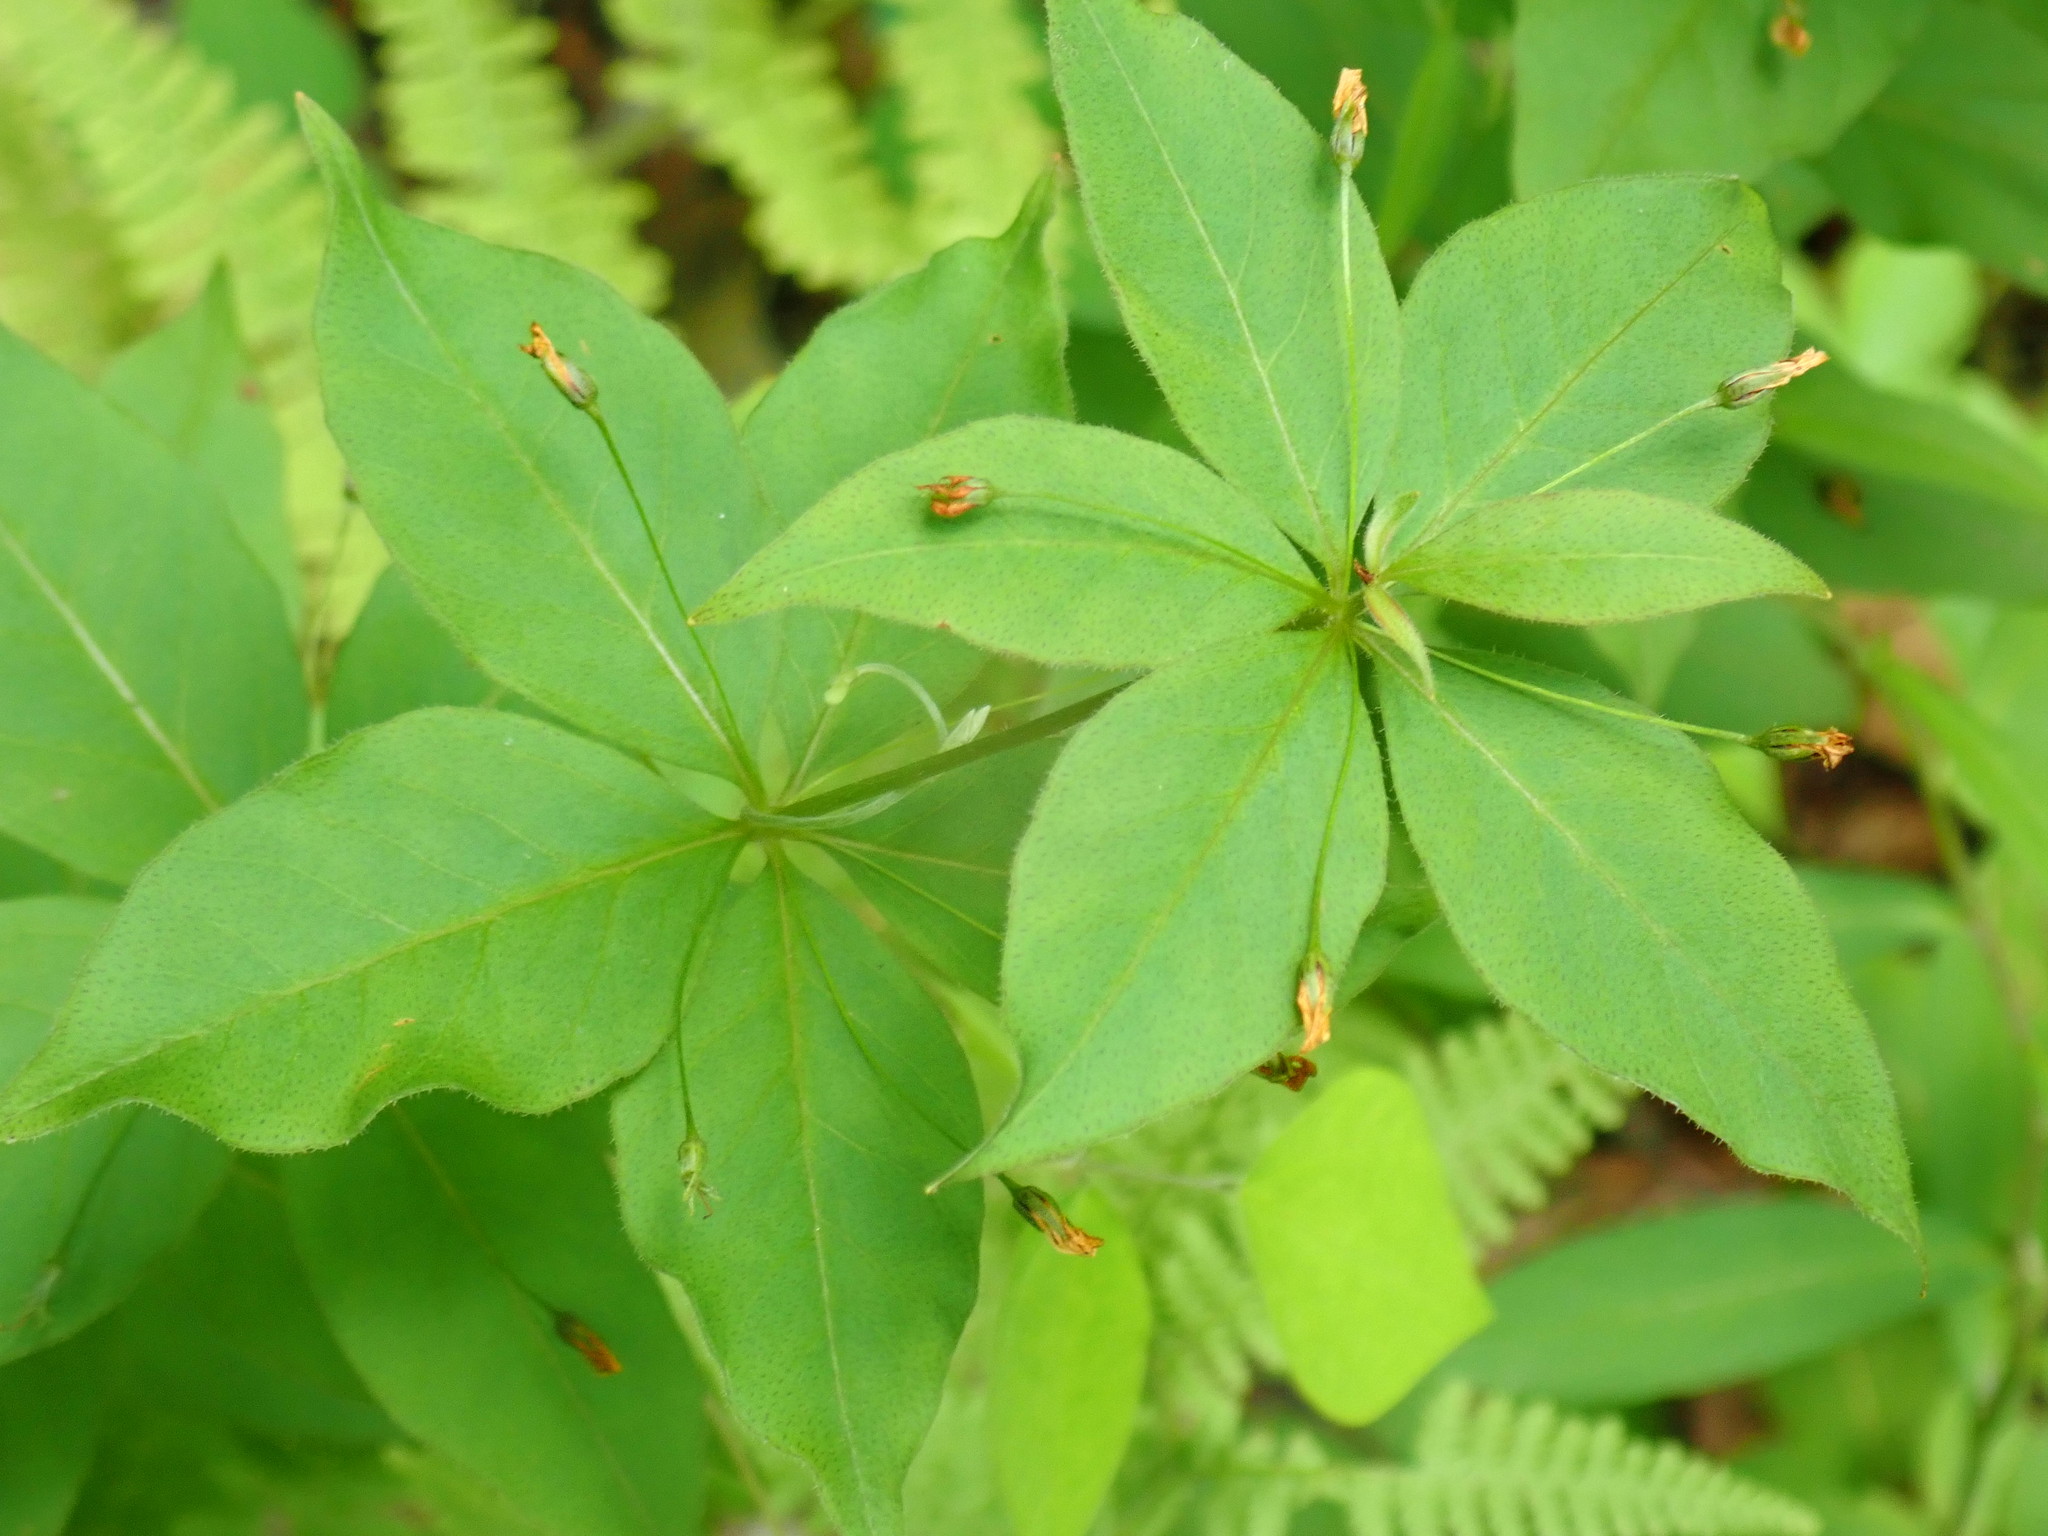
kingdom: Plantae
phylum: Tracheophyta
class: Magnoliopsida
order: Ericales
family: Primulaceae
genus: Lysimachia
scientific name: Lysimachia quadrifolia
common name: Whorled loosestrife
